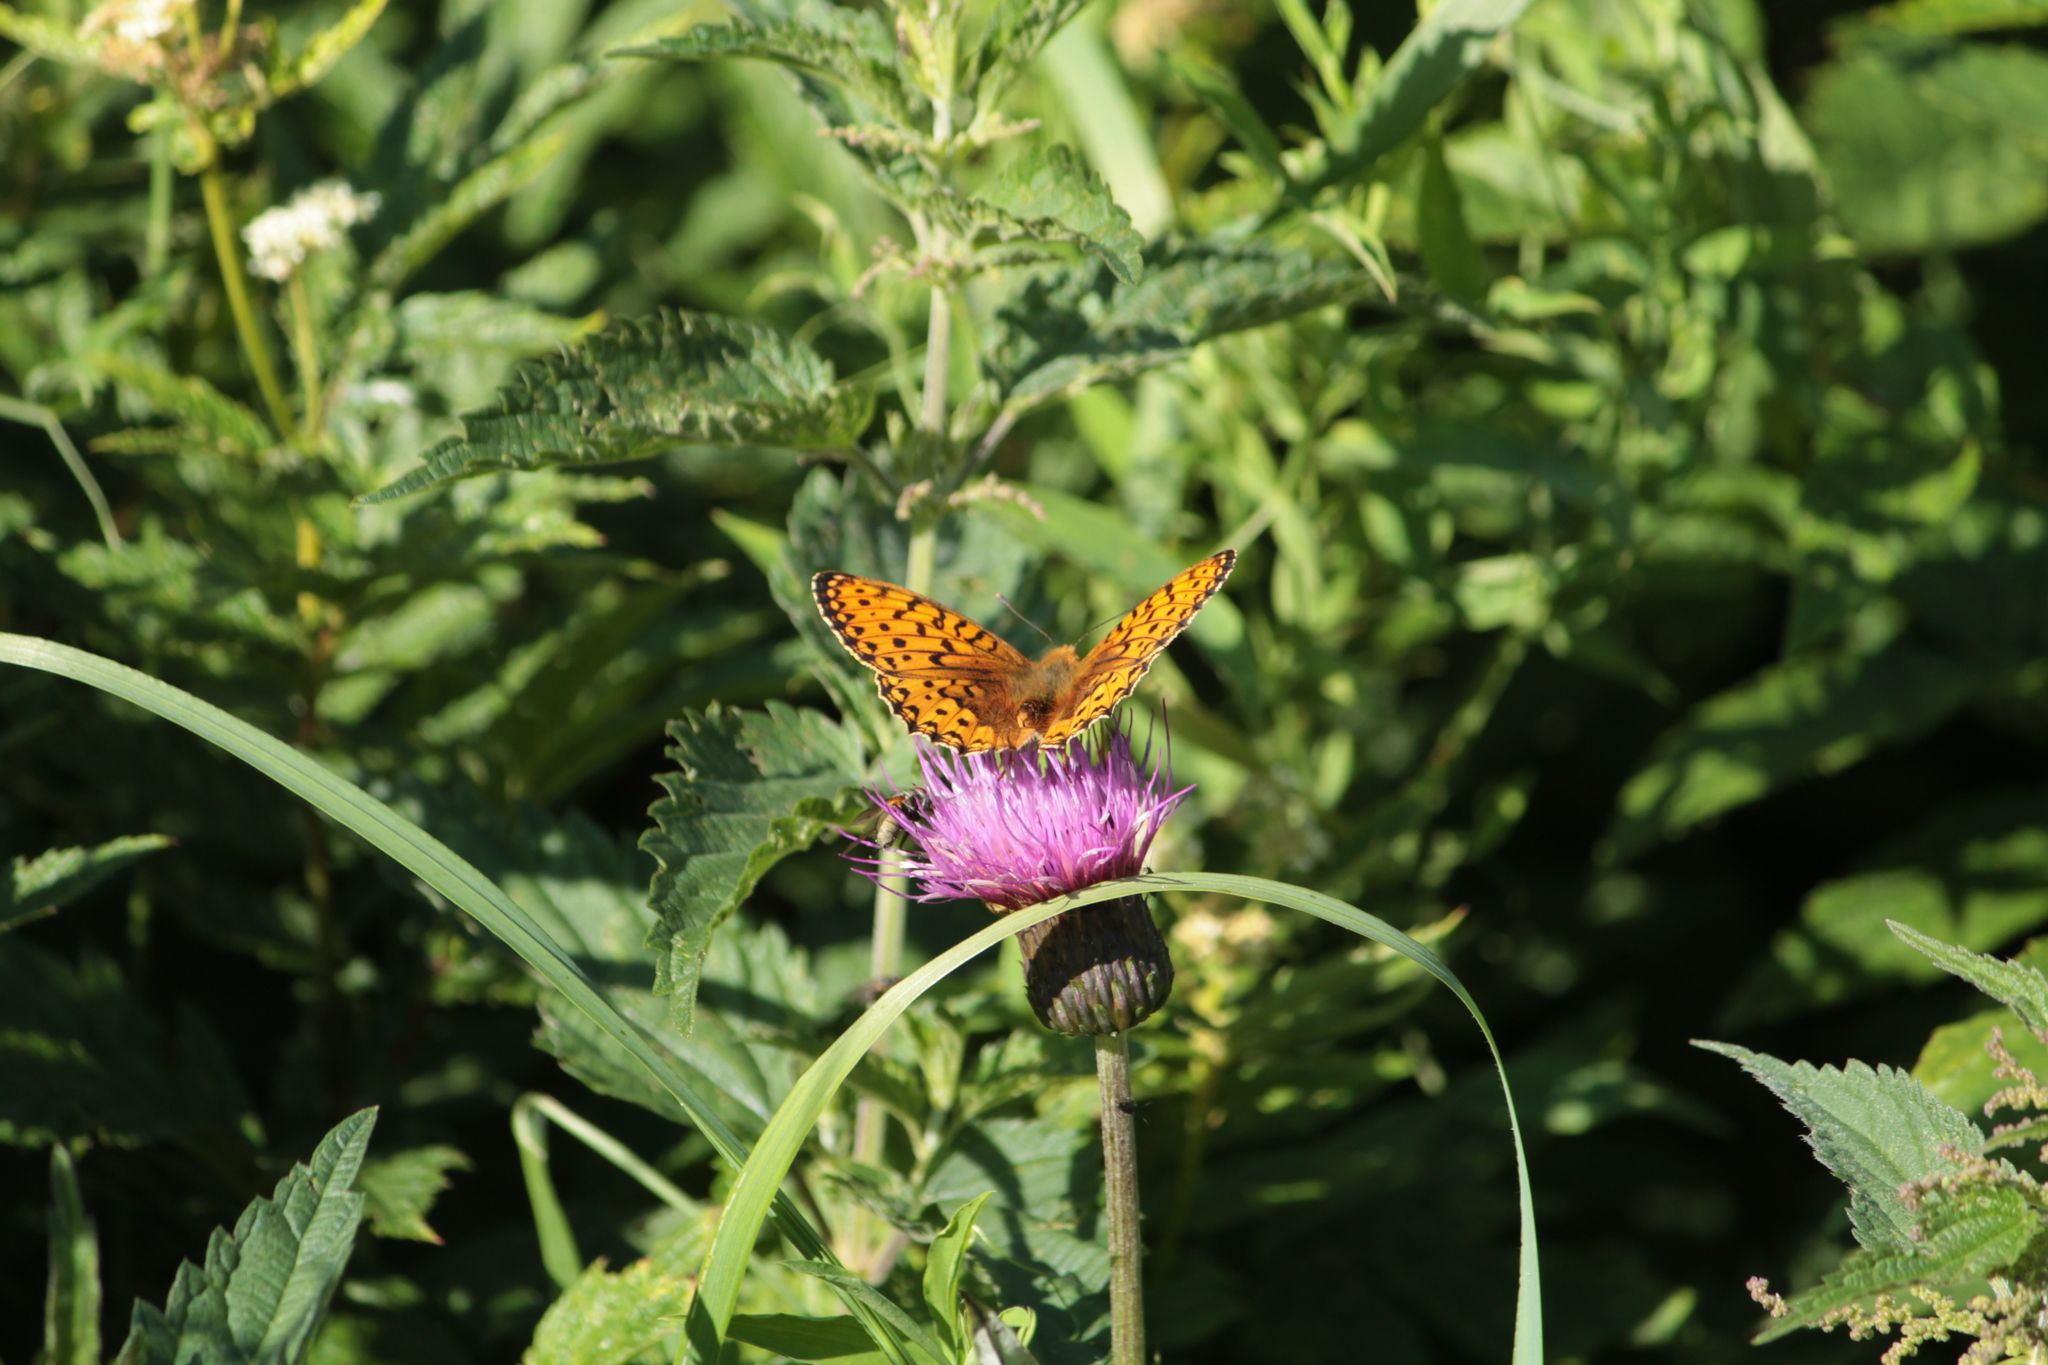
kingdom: Animalia
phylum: Arthropoda
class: Insecta
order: Lepidoptera
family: Nymphalidae
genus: Speyeria
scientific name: Speyeria aglaja
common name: Dark green fritillary
